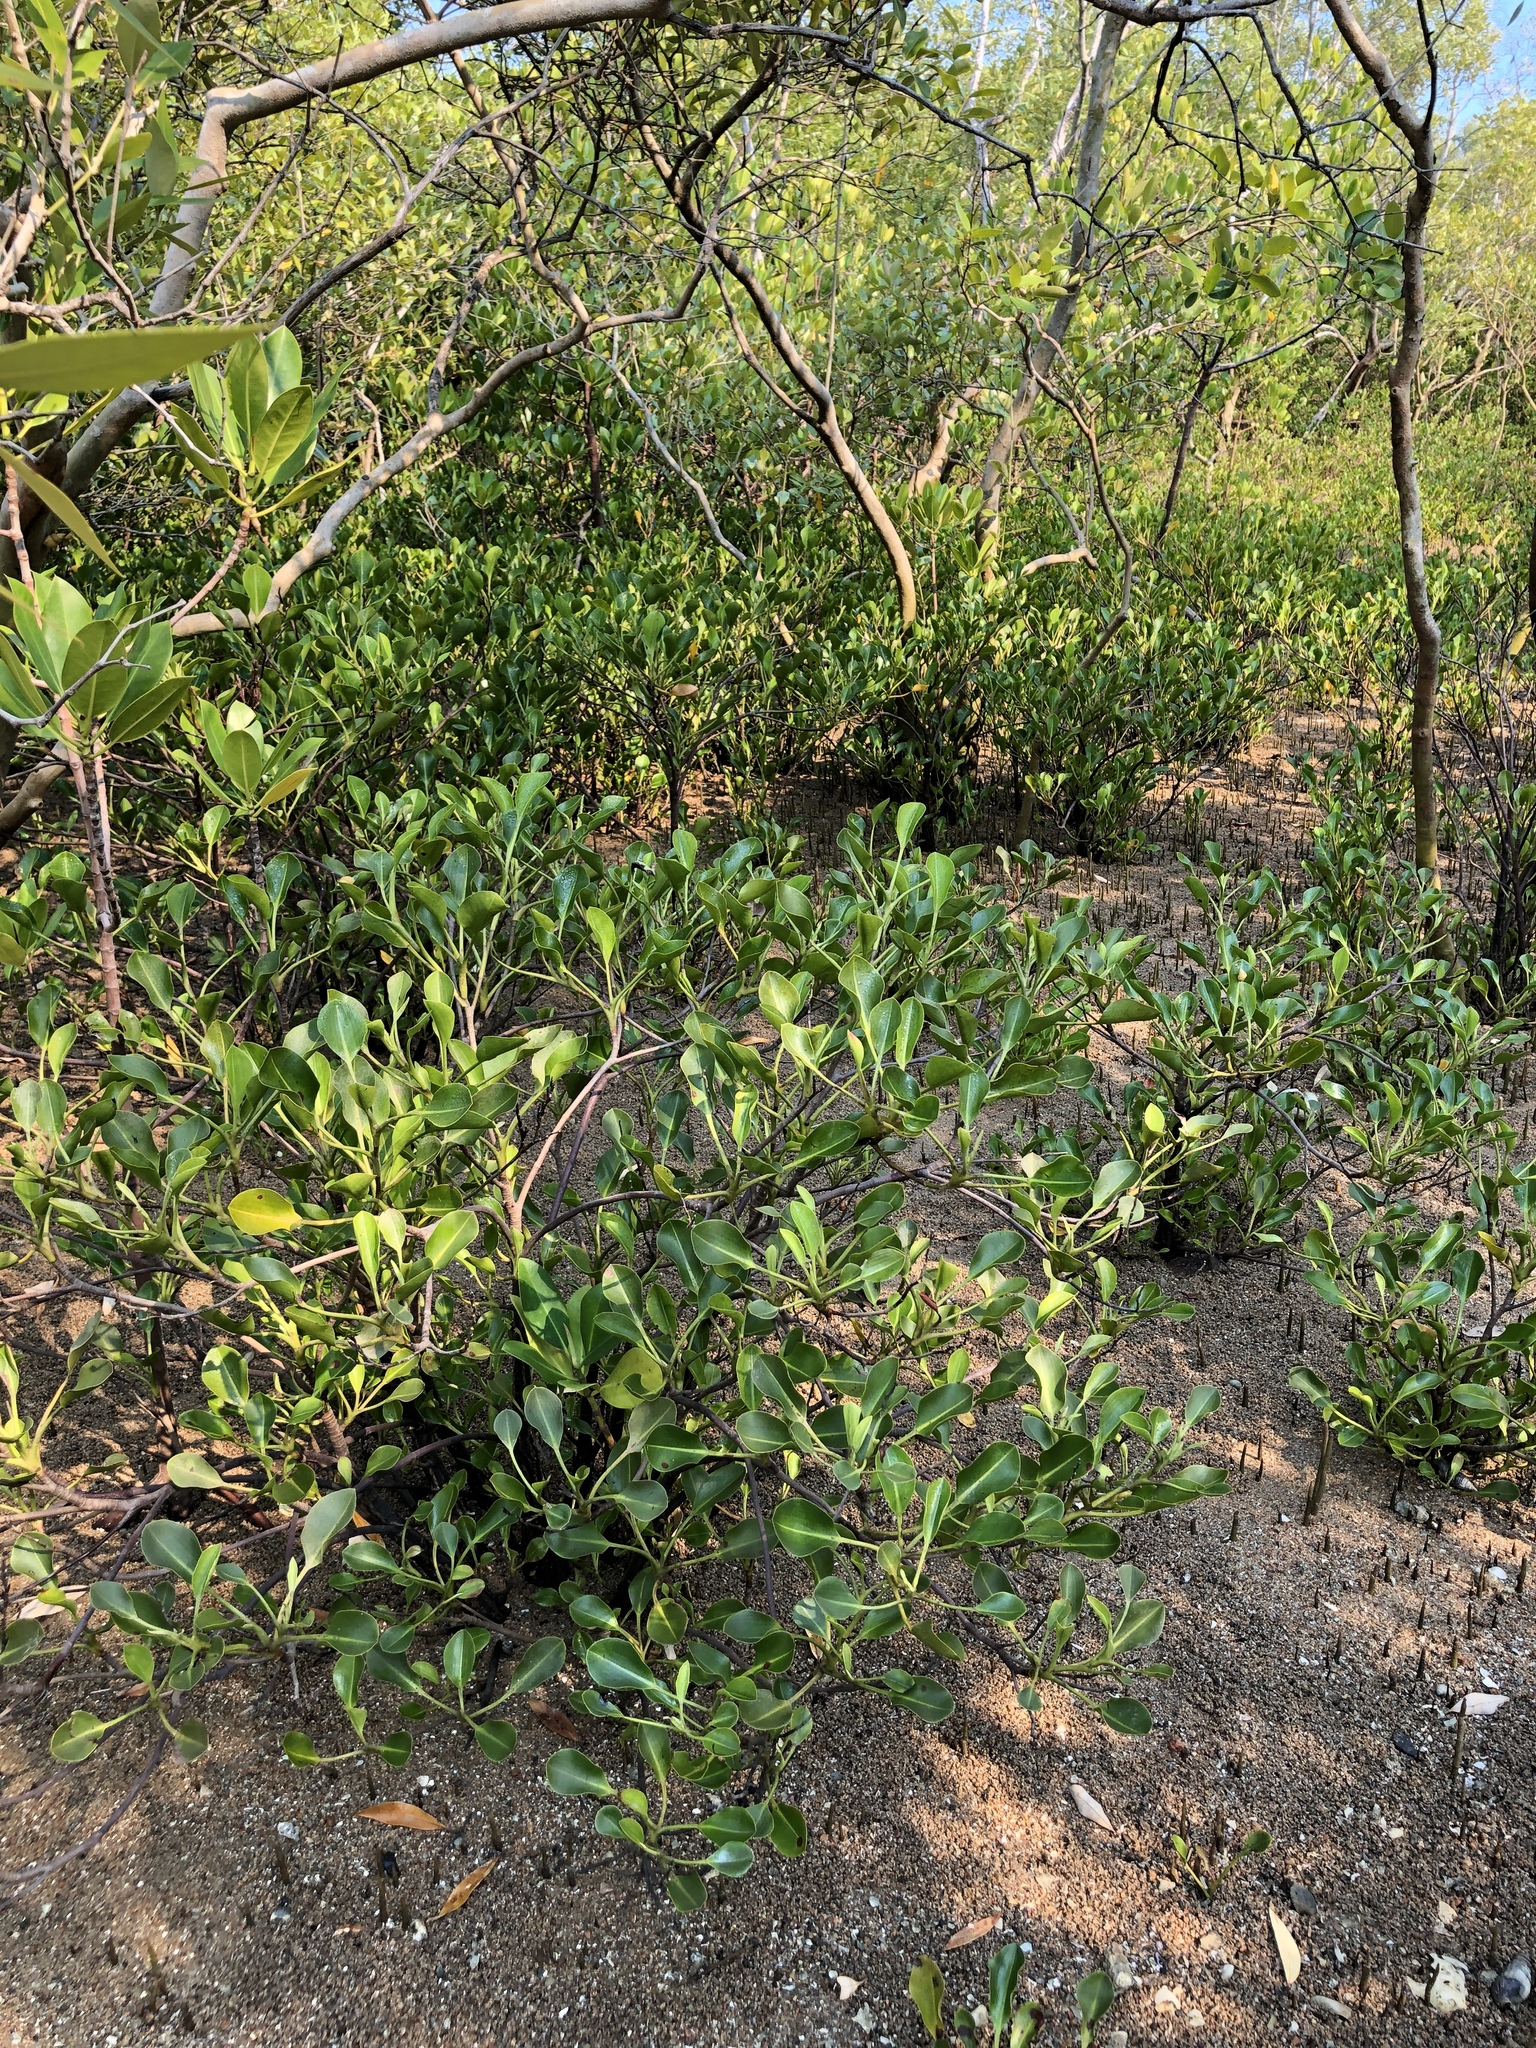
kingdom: Plantae
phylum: Tracheophyta
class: Magnoliopsida
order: Caryophyllales
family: Plumbaginaceae
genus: Aegialitis
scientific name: Aegialitis annulata
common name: Club mangrove
